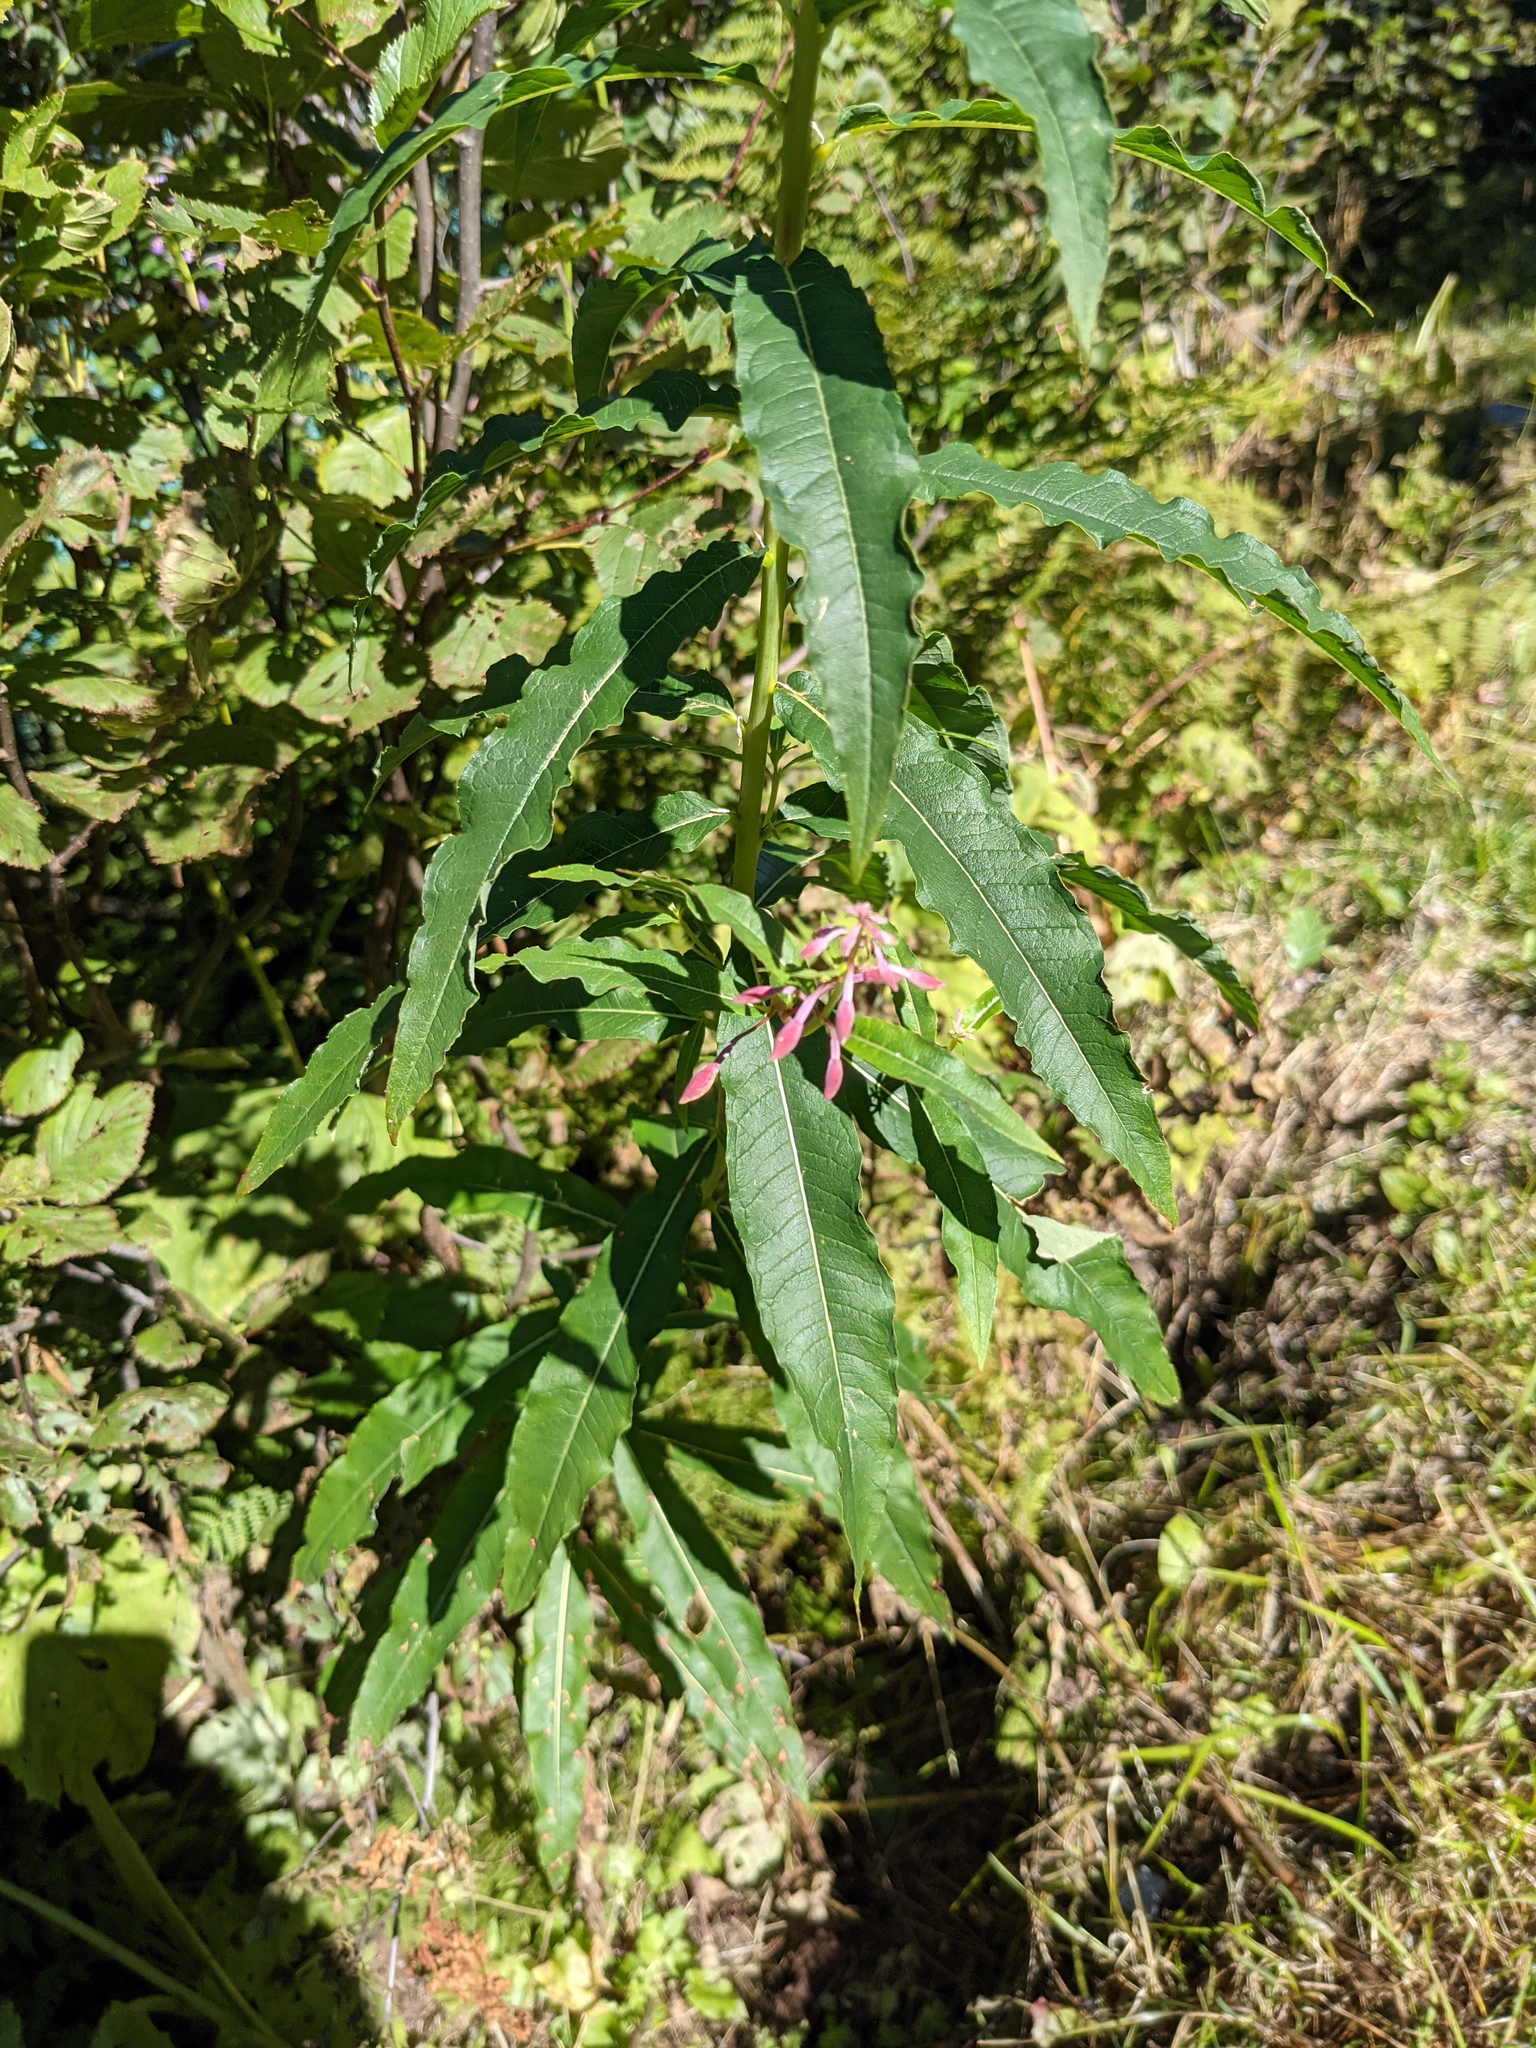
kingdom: Plantae
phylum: Tracheophyta
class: Magnoliopsida
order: Myrtales
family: Onagraceae
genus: Chamaenerion
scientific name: Chamaenerion angustifolium
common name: Fireweed
